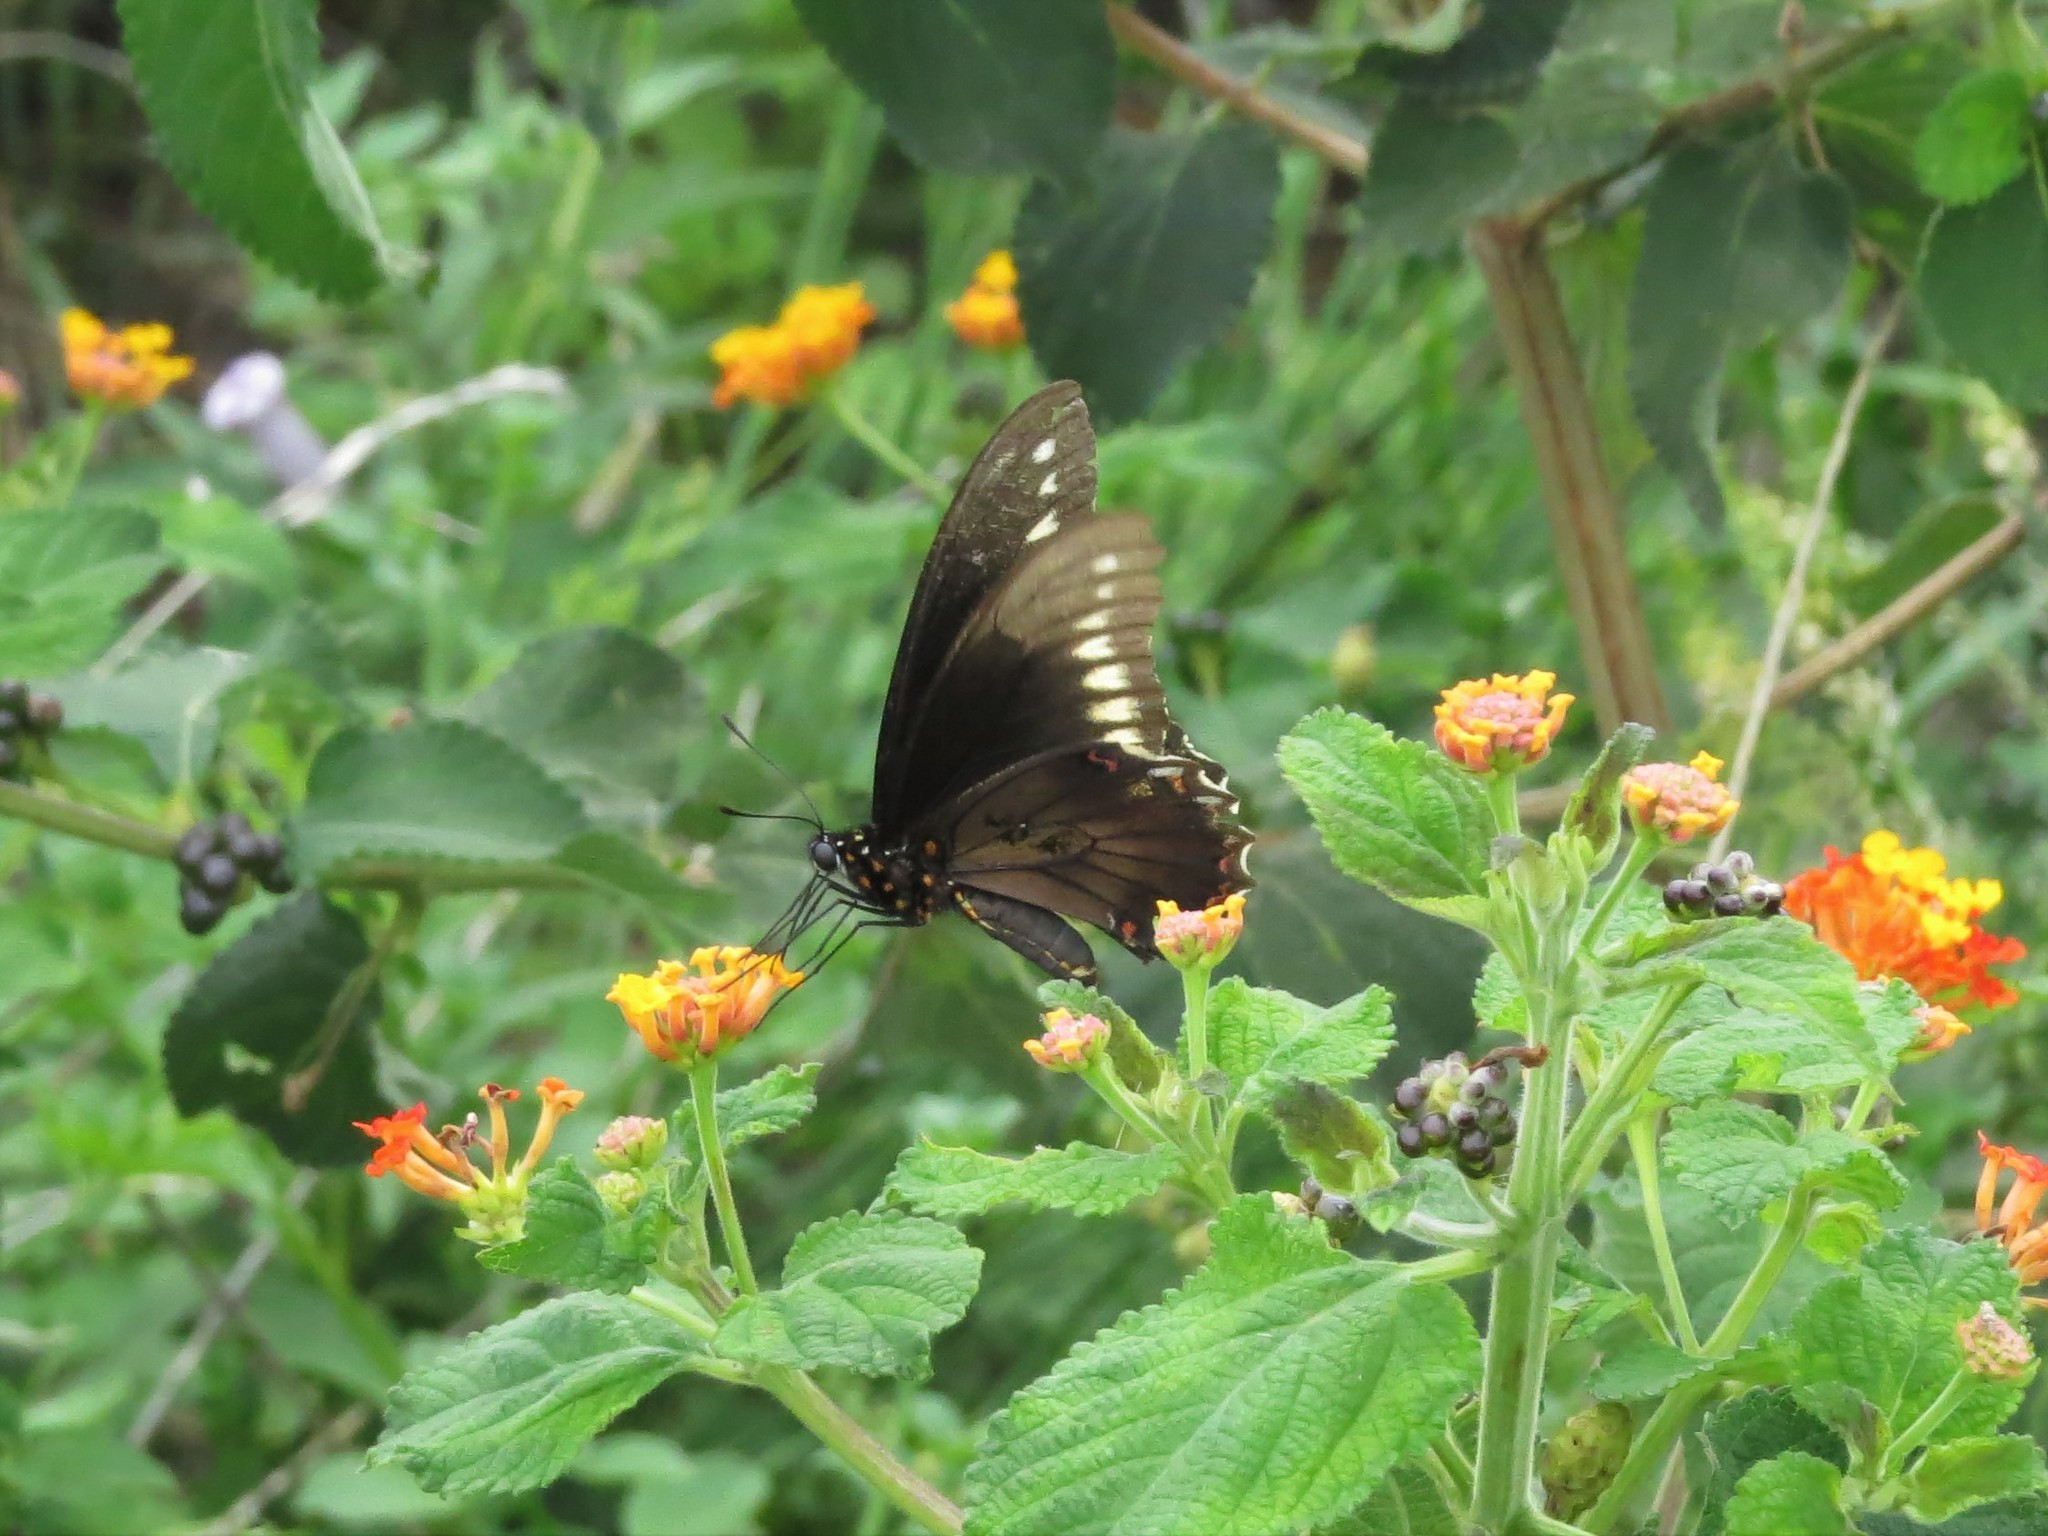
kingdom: Animalia
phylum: Arthropoda
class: Insecta
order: Lepidoptera
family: Papilionidae
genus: Battus
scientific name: Battus polydamas
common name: Polydamas swallowtail
